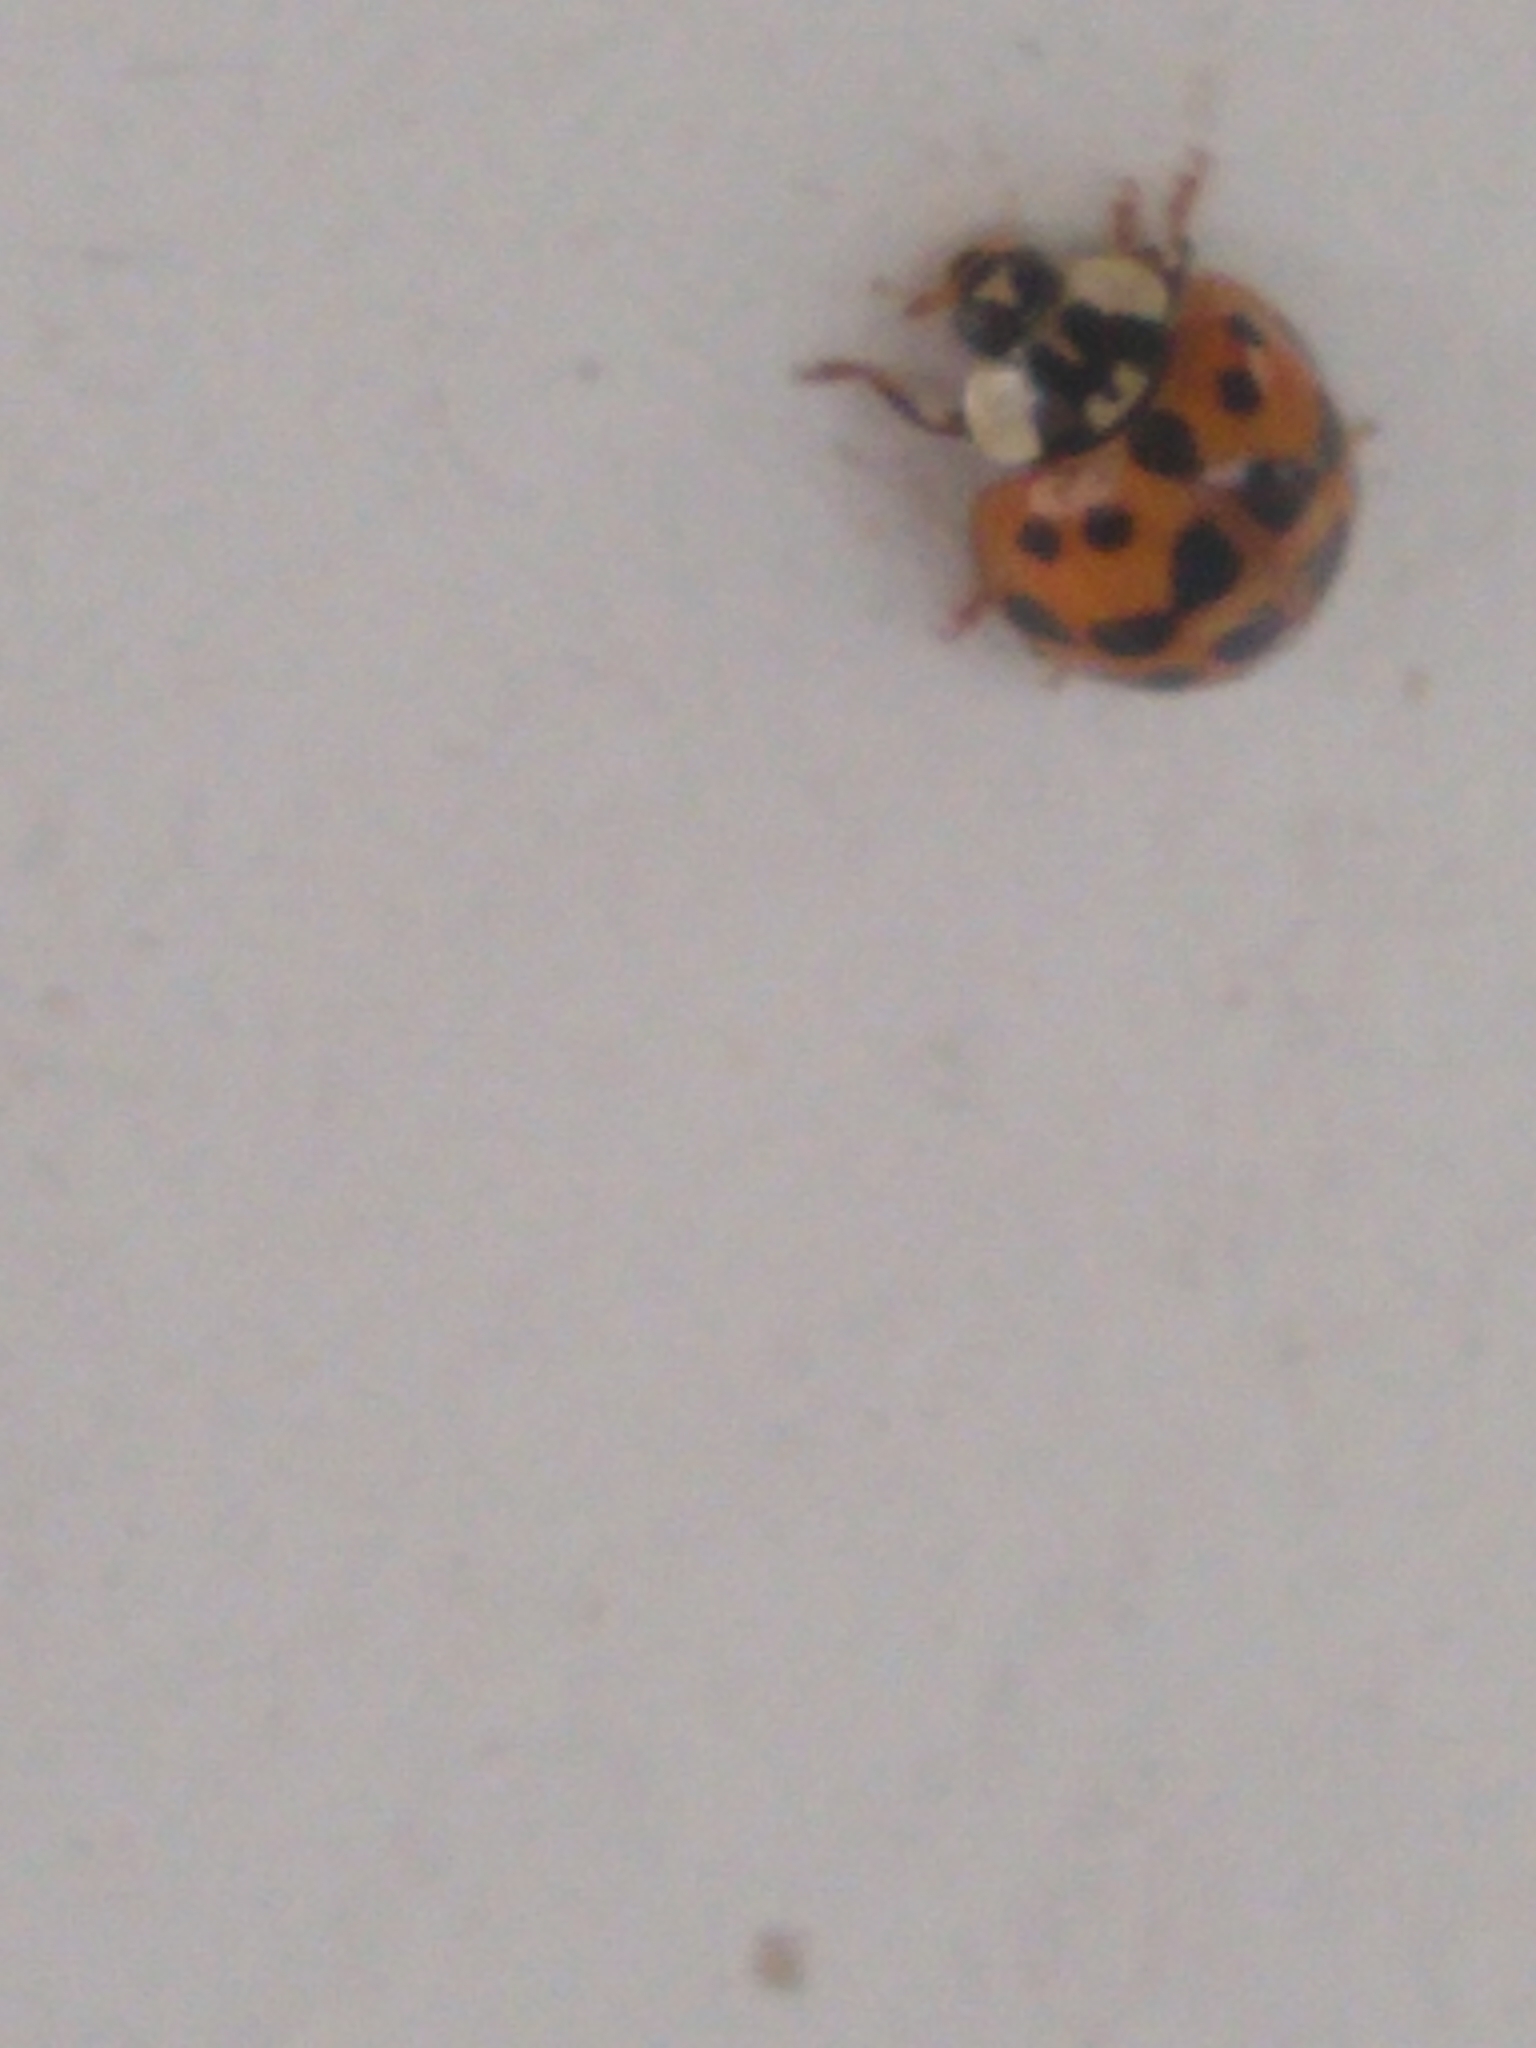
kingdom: Animalia
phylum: Arthropoda
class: Insecta
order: Coleoptera
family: Coccinellidae
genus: Harmonia
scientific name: Harmonia axyridis
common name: Harlequin ladybird
